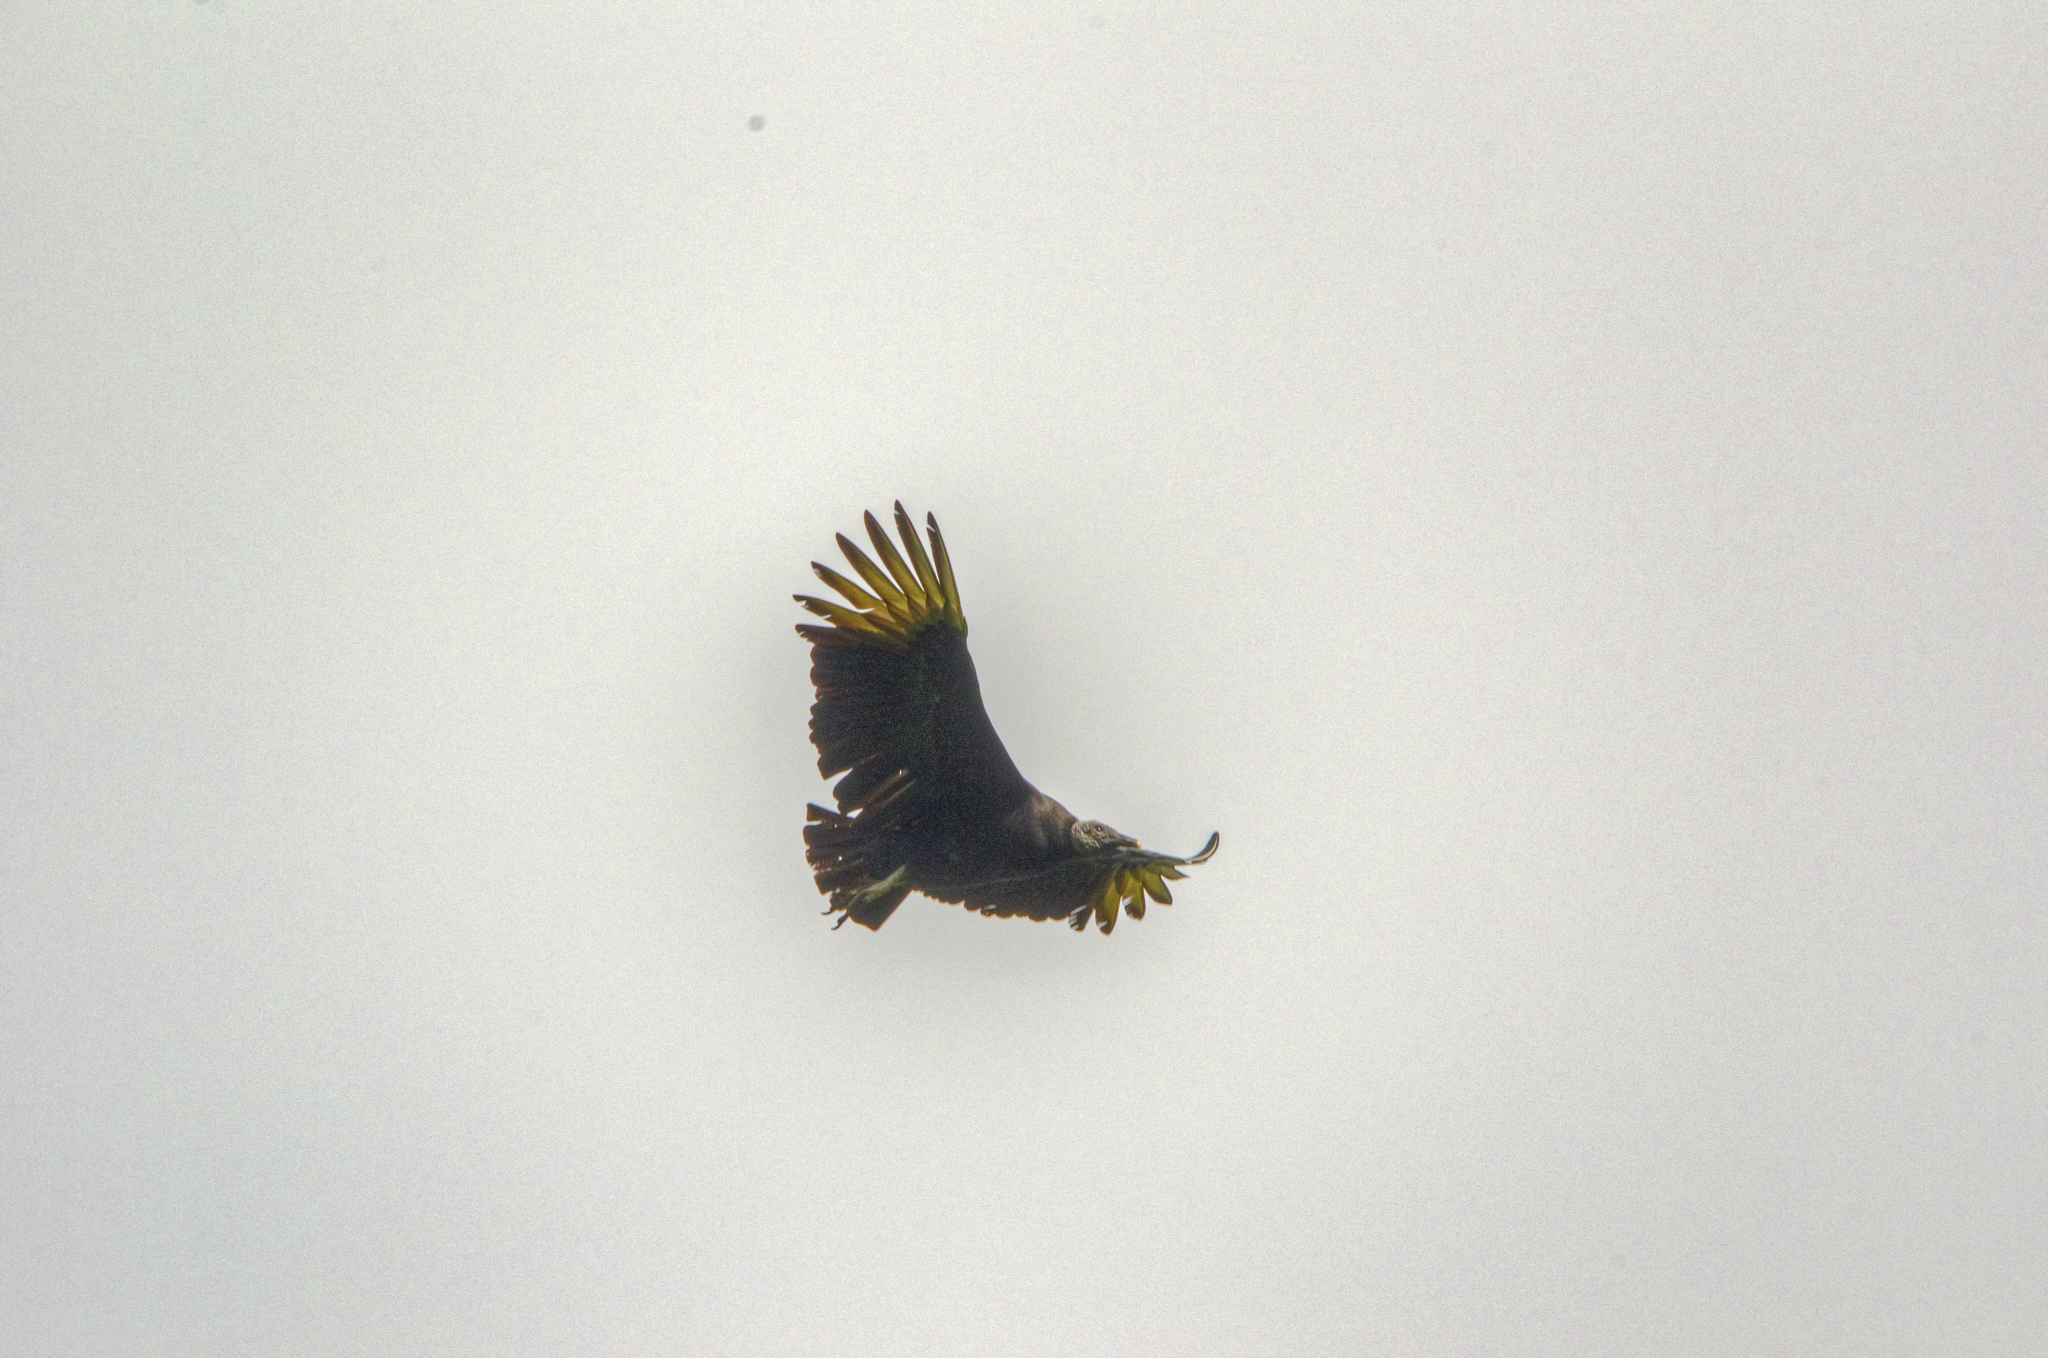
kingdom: Animalia
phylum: Chordata
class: Aves
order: Accipitriformes
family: Cathartidae
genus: Coragyps
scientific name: Coragyps atratus
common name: Black vulture
